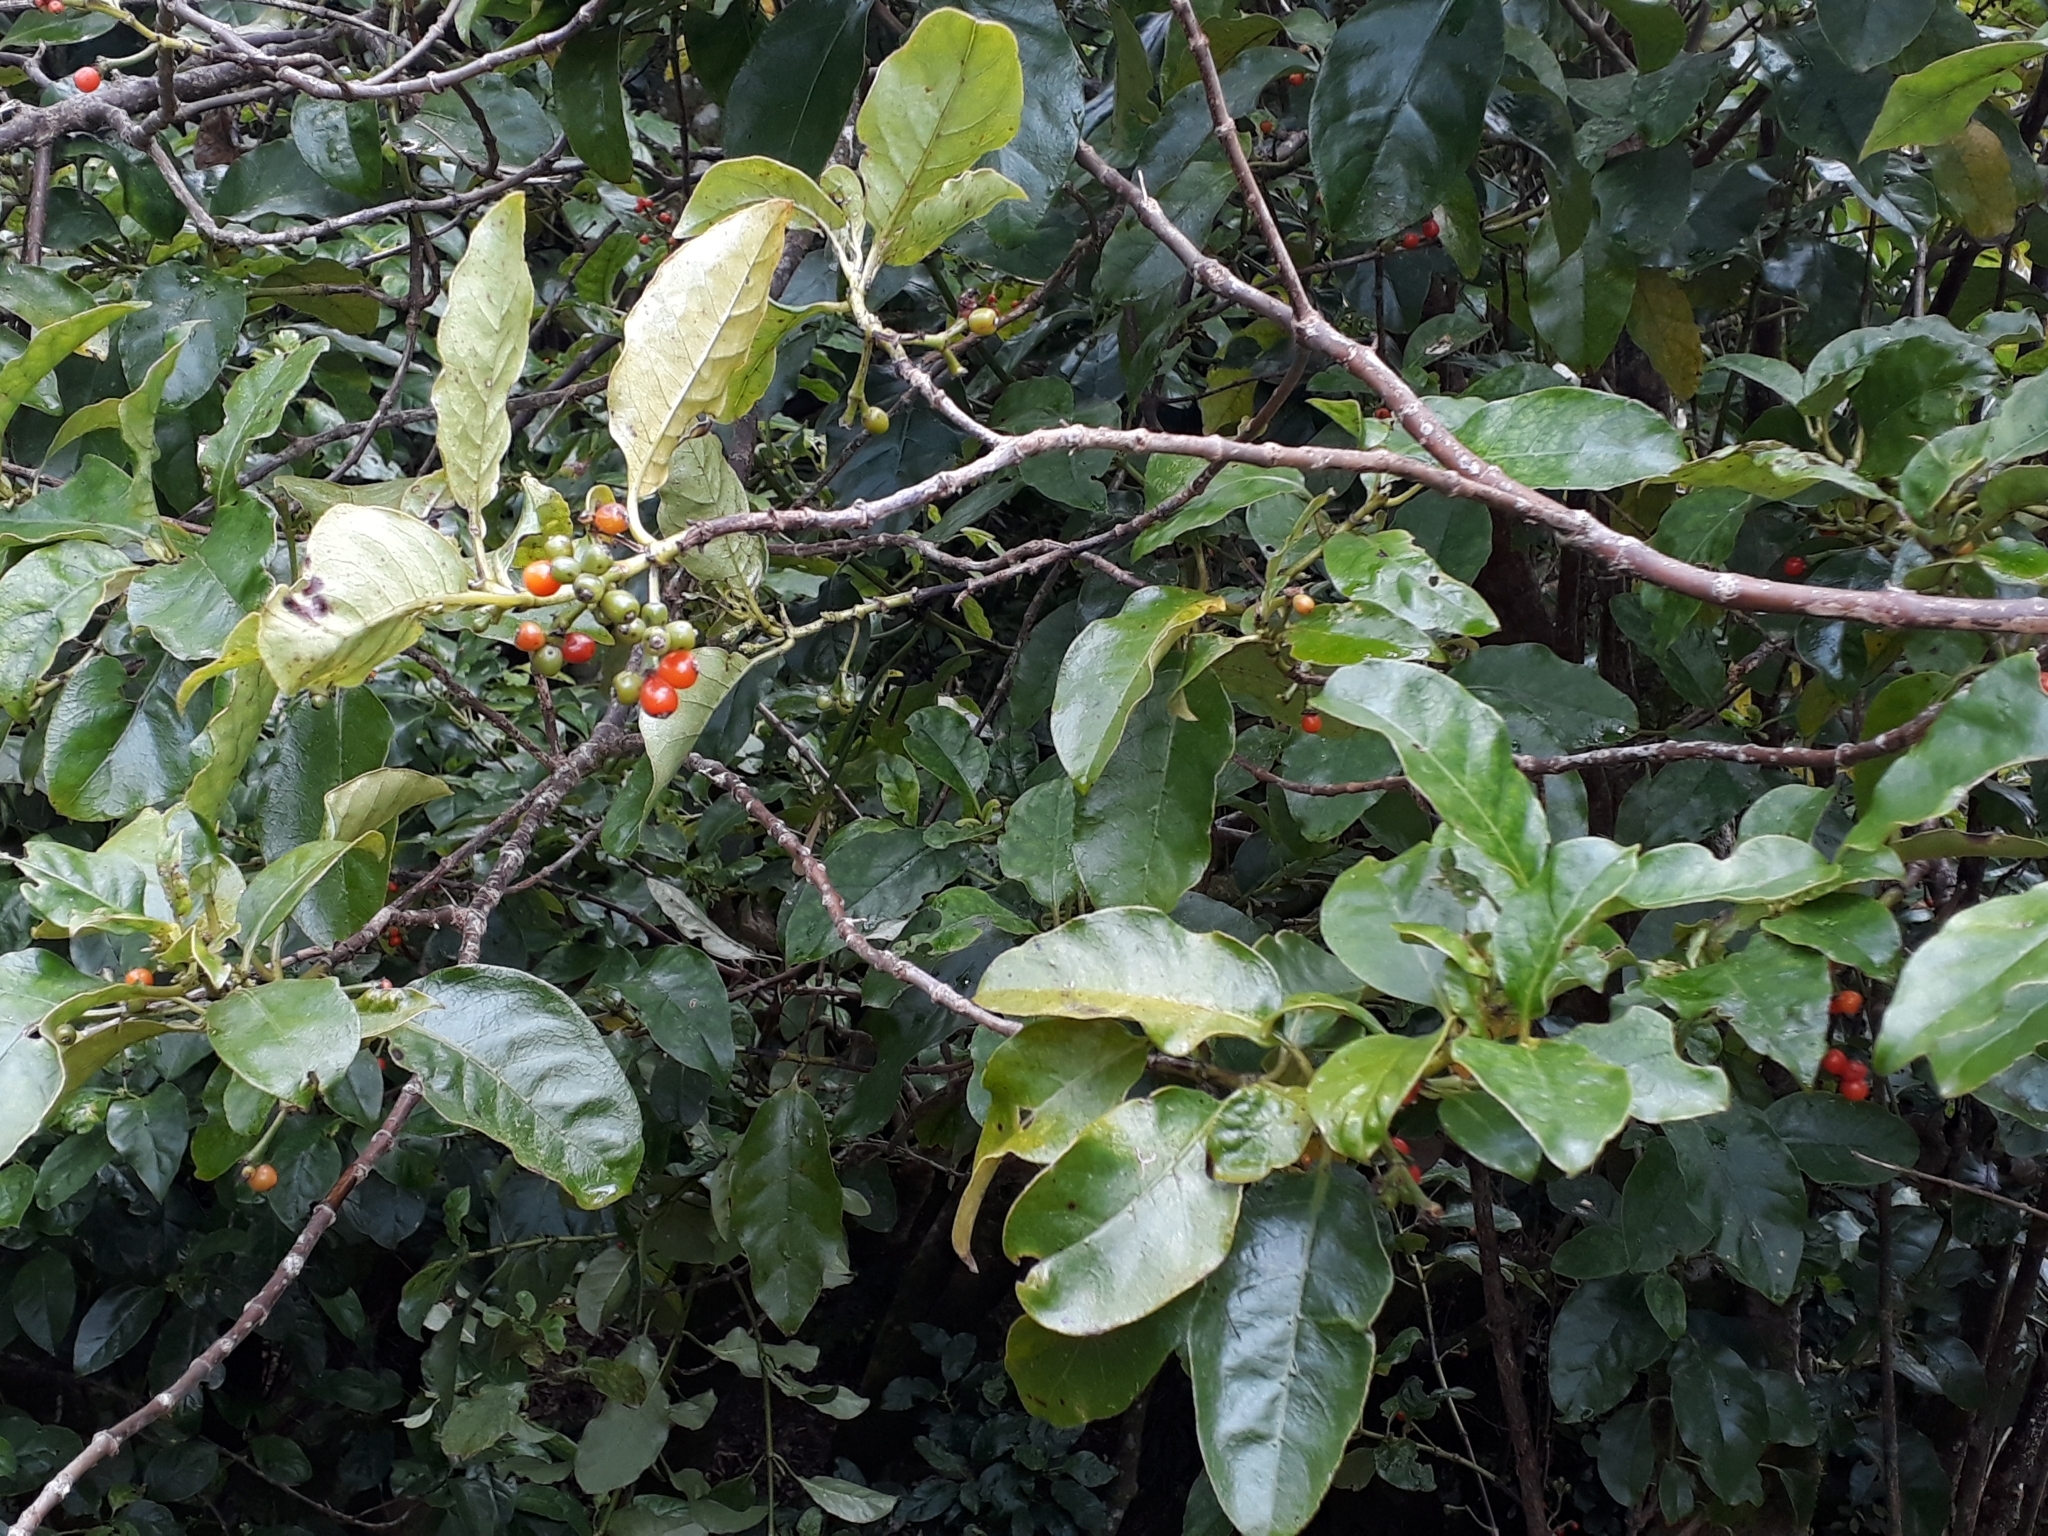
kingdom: Plantae
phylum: Tracheophyta
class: Magnoliopsida
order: Gentianales
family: Rubiaceae
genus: Coprosma
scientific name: Coprosma autumnalis
